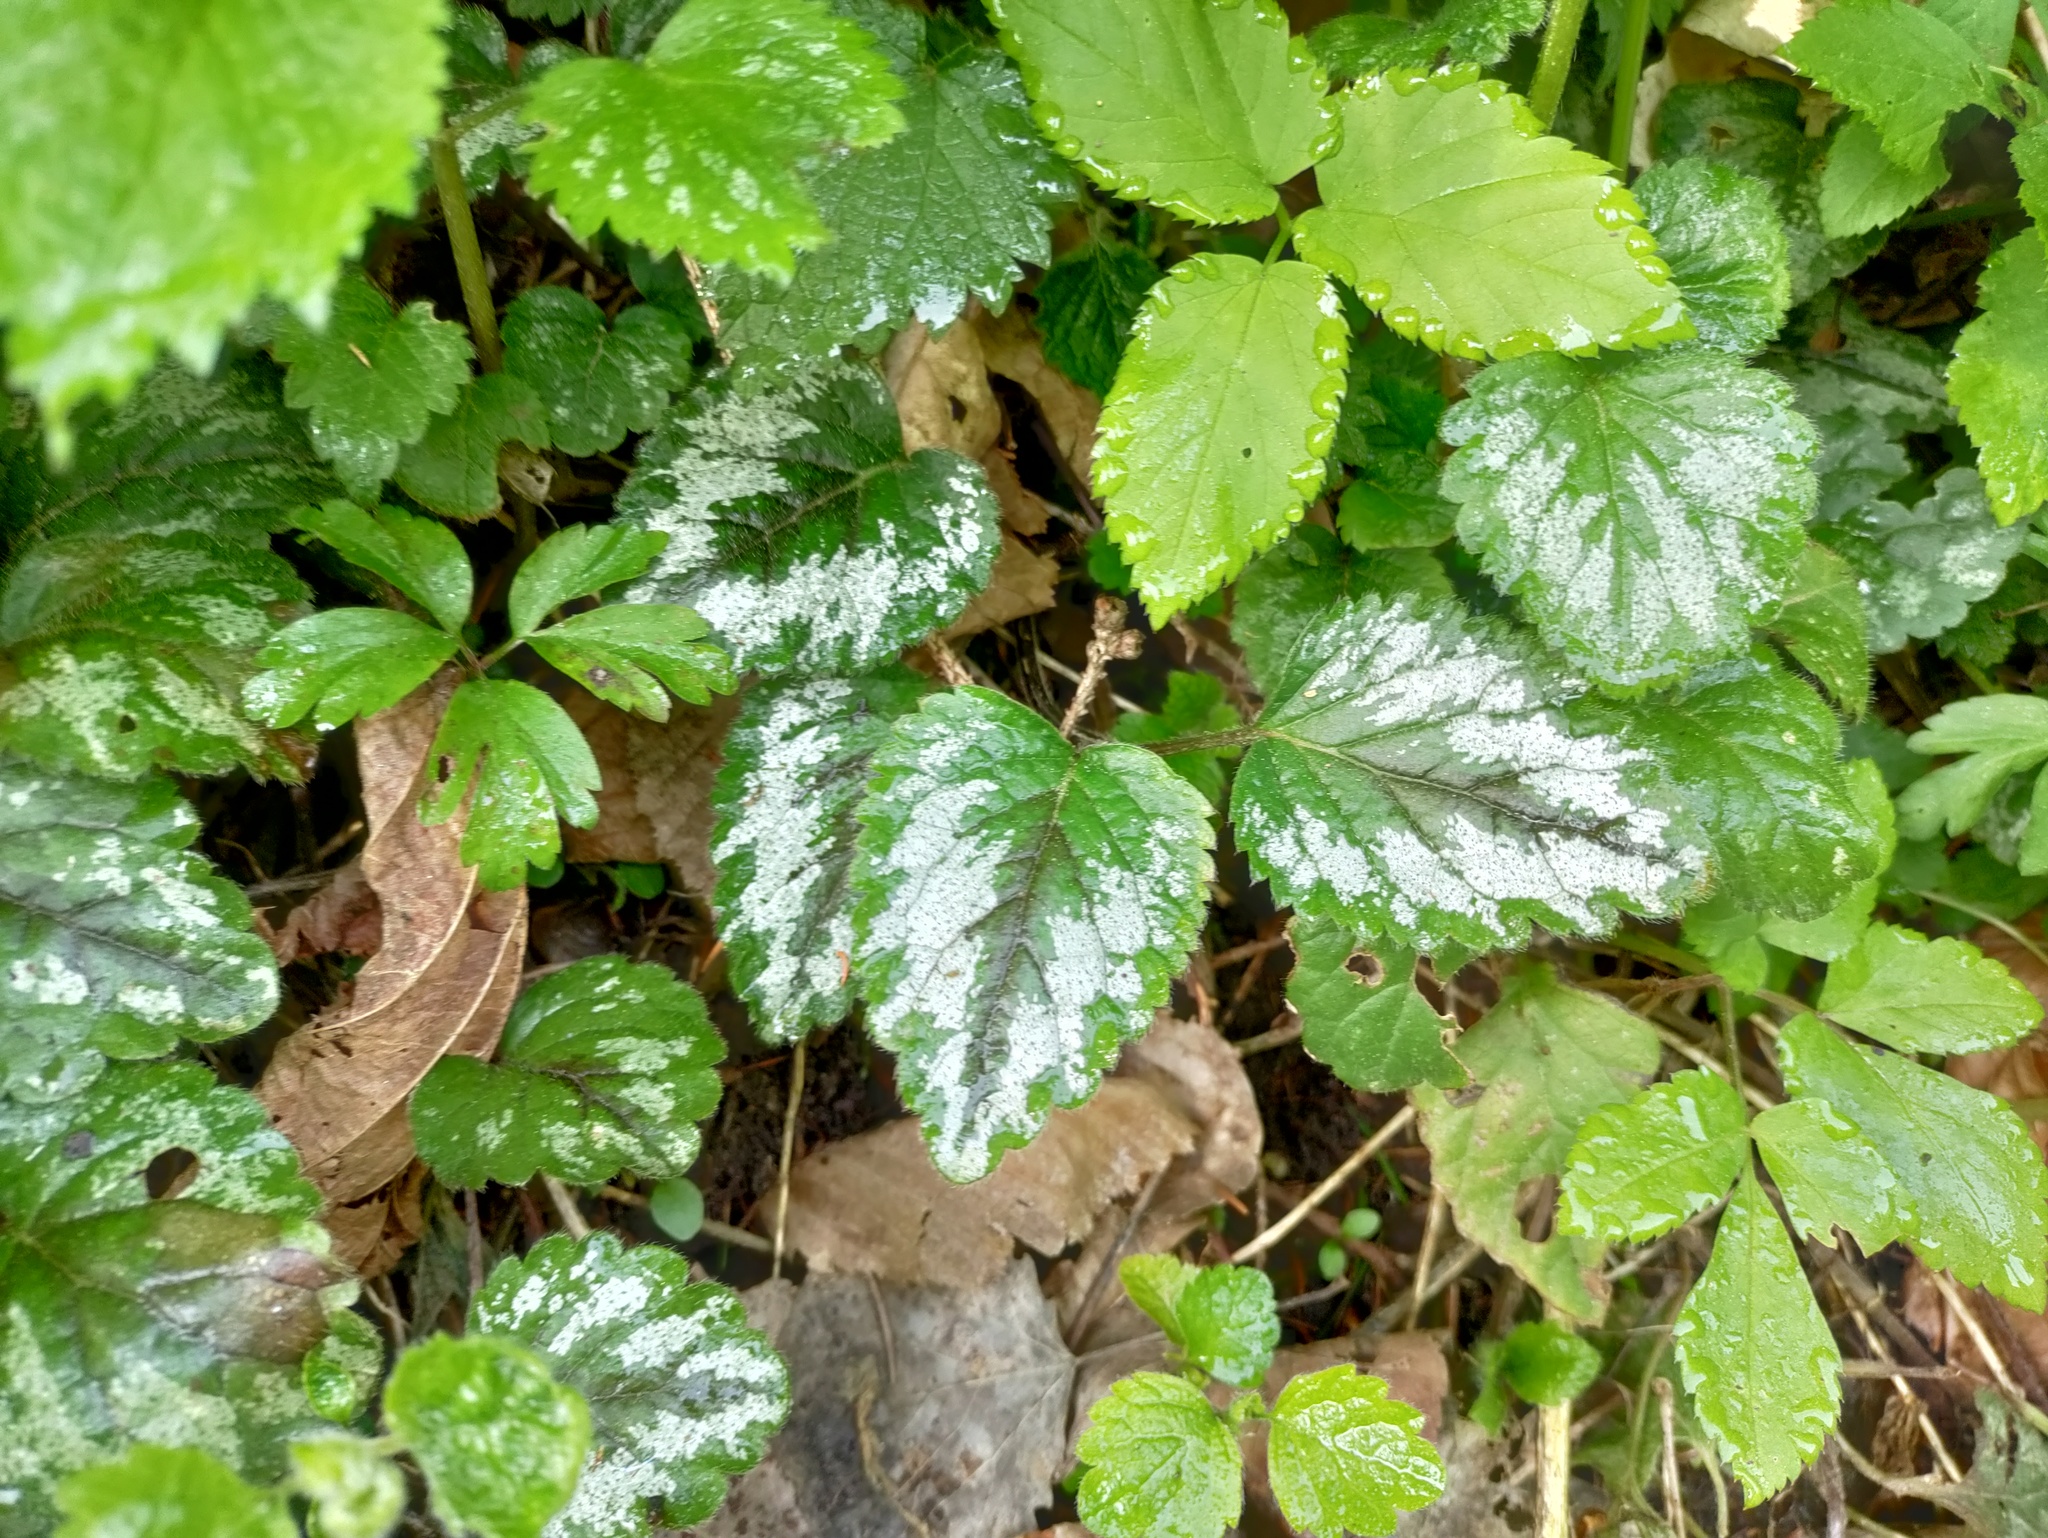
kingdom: Plantae
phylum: Tracheophyta
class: Magnoliopsida
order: Lamiales
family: Lamiaceae
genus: Lamium
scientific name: Lamium galeobdolon
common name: Yellow archangel
